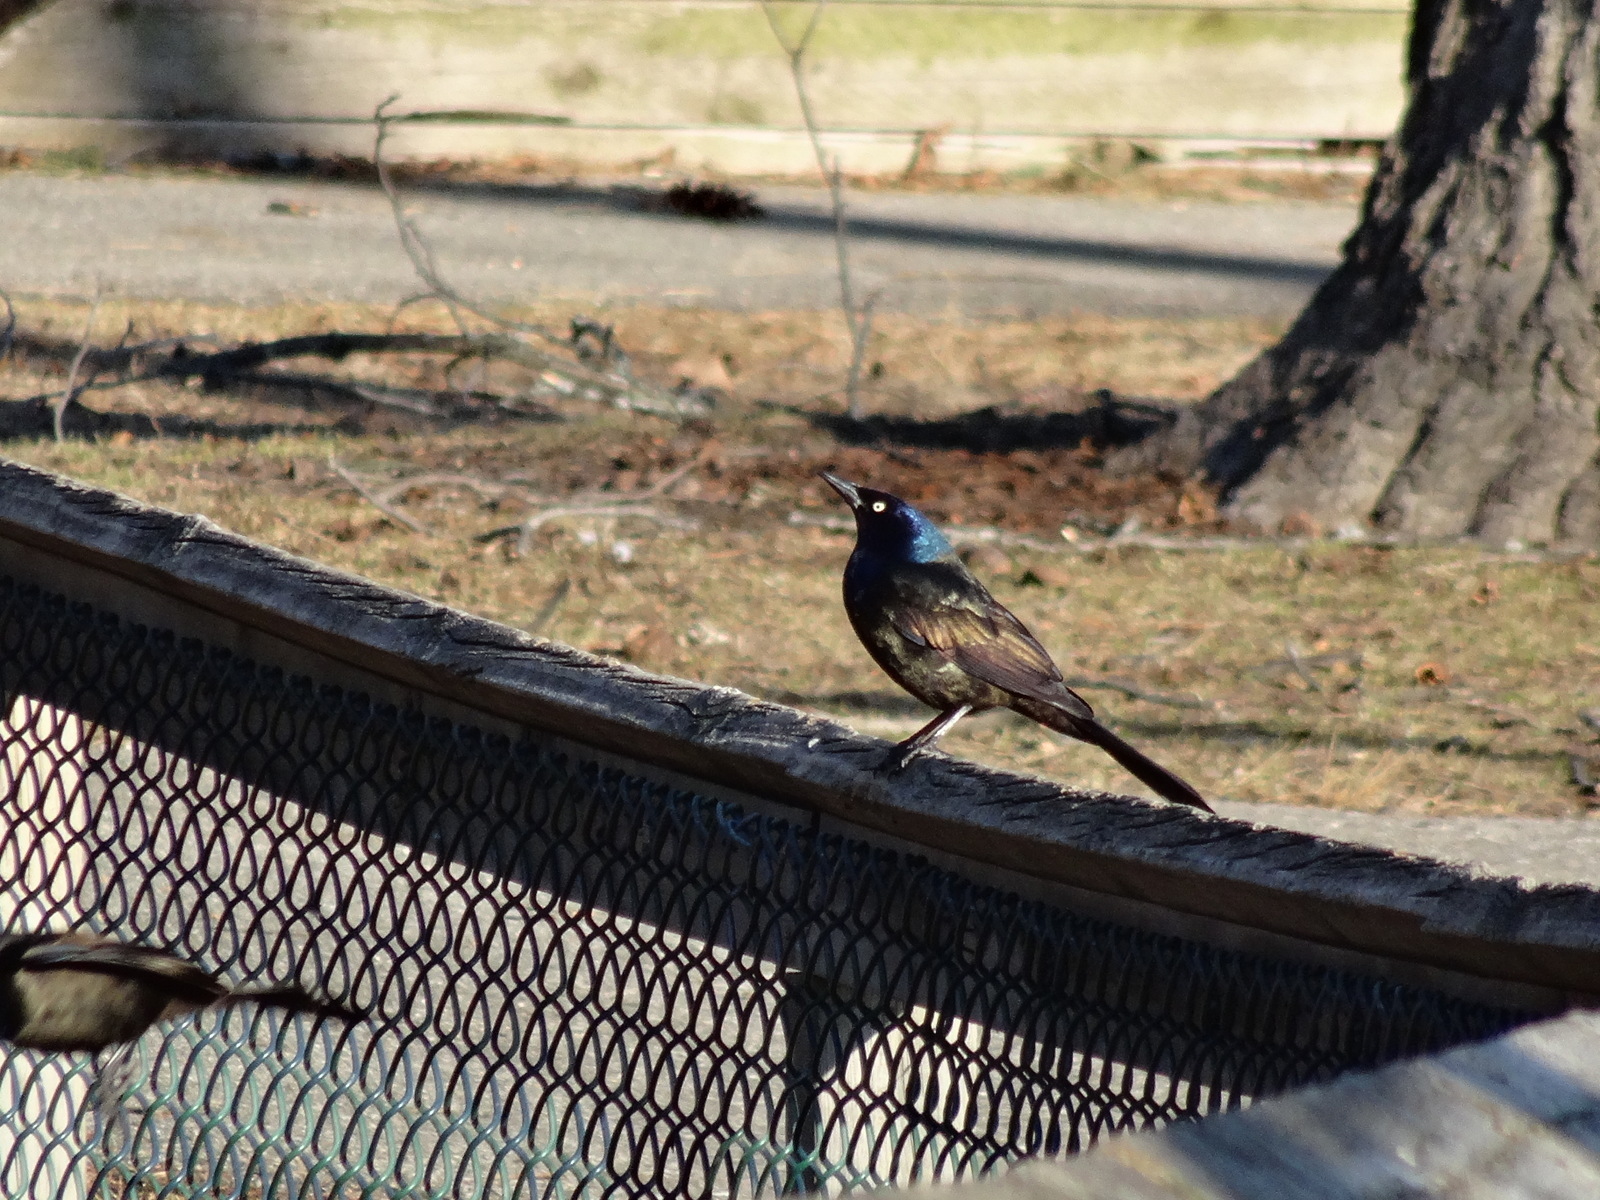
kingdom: Animalia
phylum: Chordata
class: Aves
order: Passeriformes
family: Icteridae
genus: Quiscalus
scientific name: Quiscalus quiscula
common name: Common grackle
